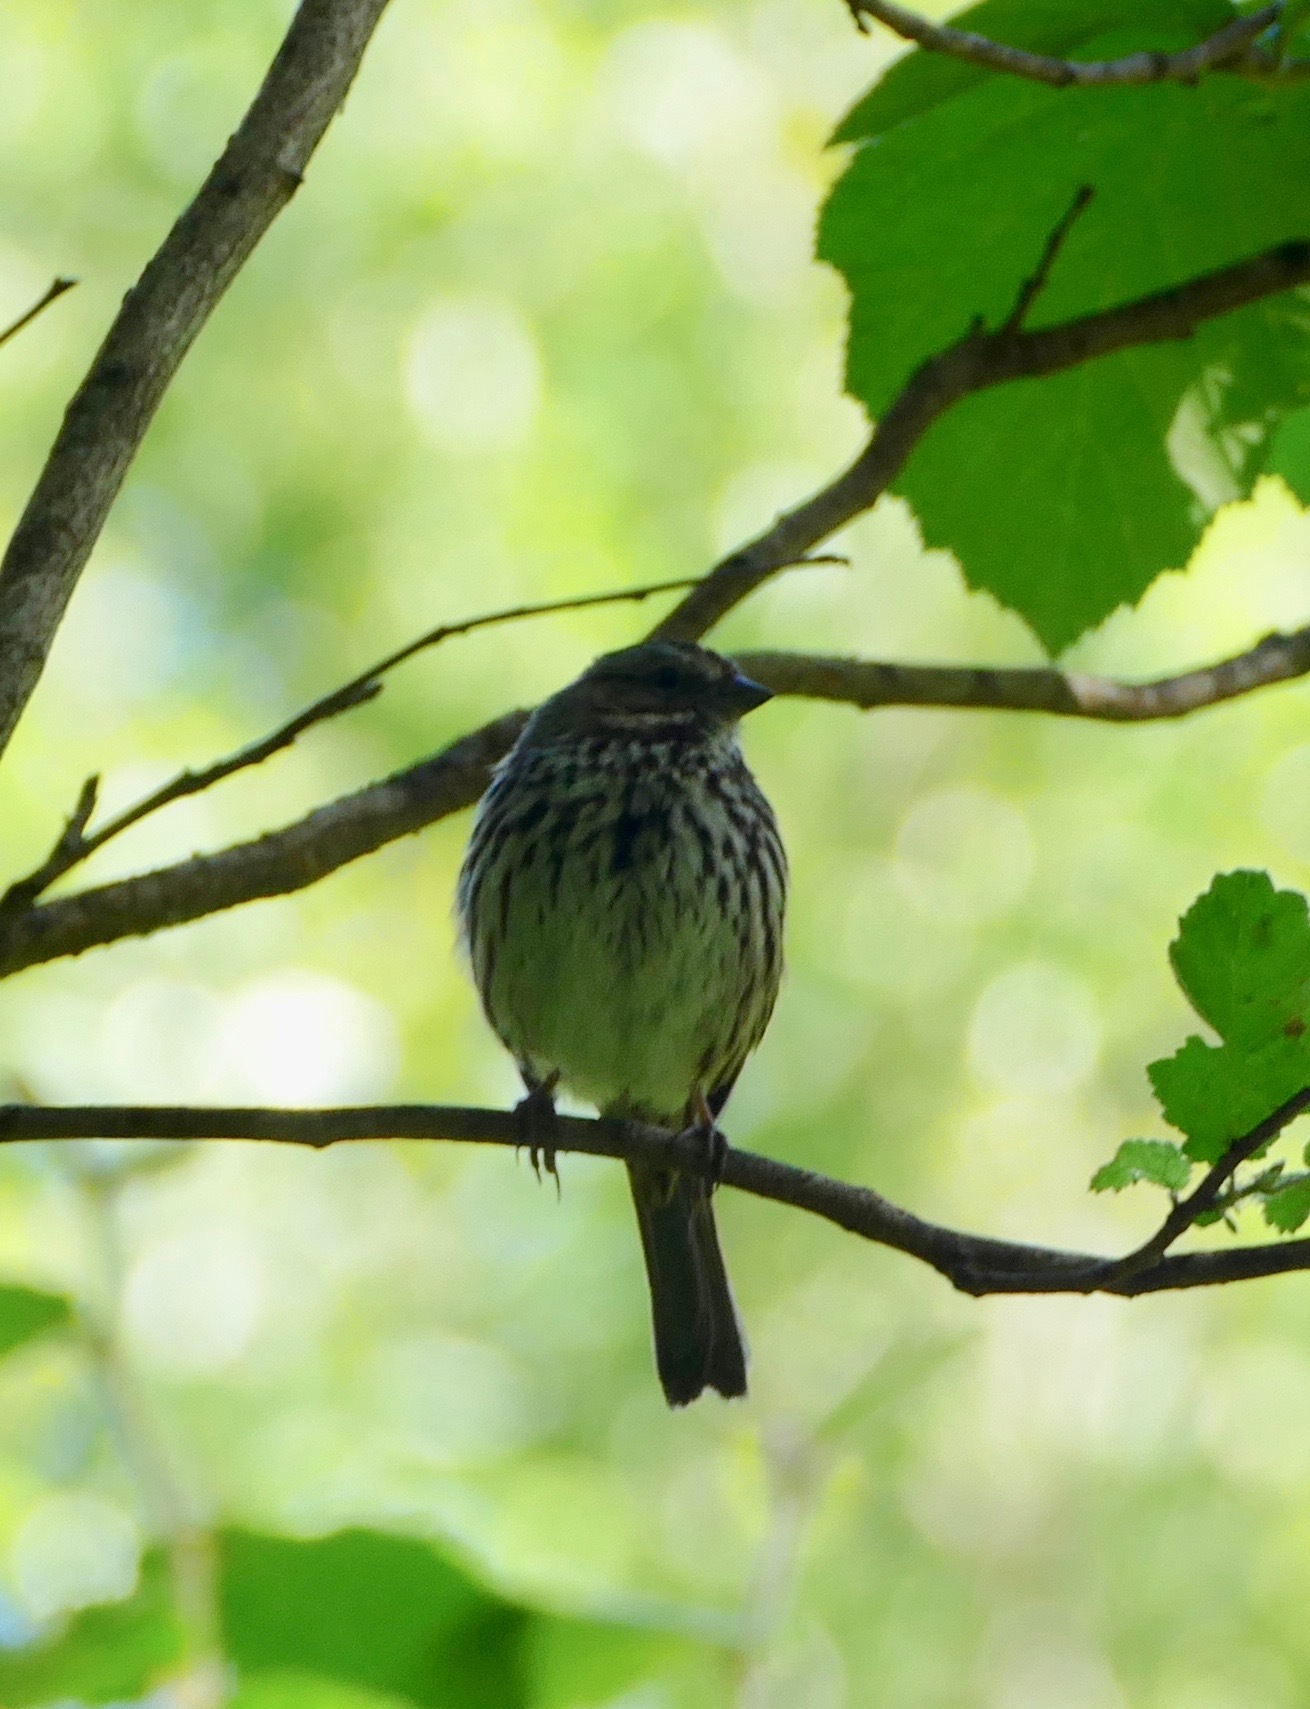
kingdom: Animalia
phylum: Chordata
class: Aves
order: Passeriformes
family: Passerellidae
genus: Melospiza
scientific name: Melospiza melodia
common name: Song sparrow
